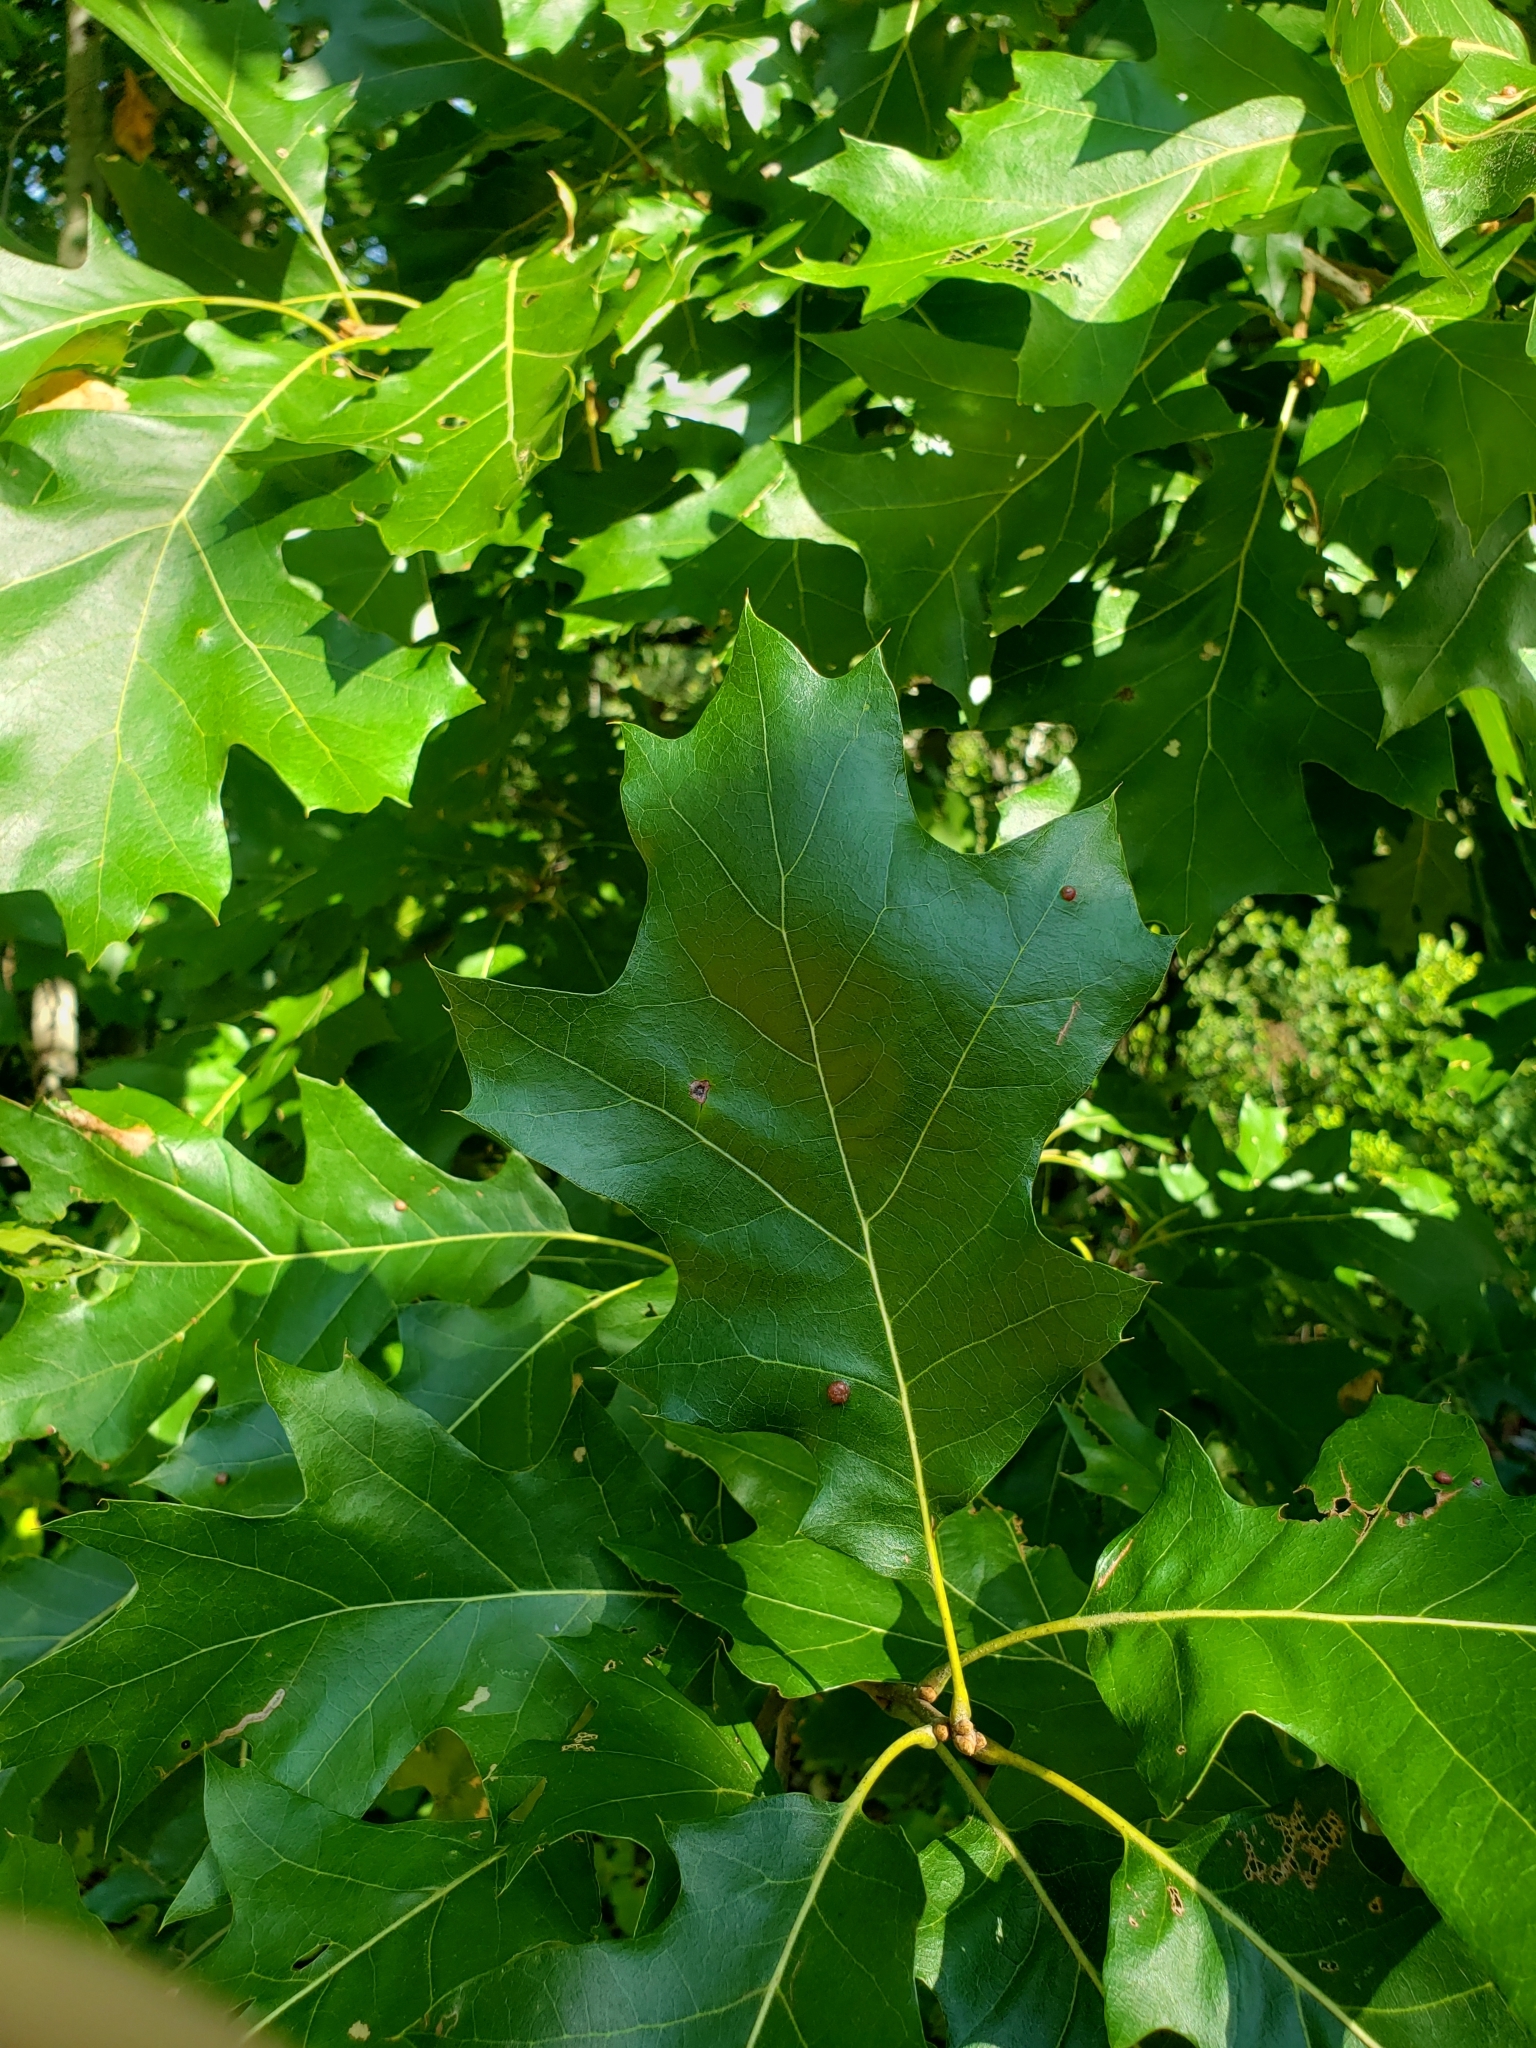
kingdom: Plantae
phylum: Tracheophyta
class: Magnoliopsida
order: Fagales
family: Fagaceae
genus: Quercus
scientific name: Quercus velutina
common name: Black oak
